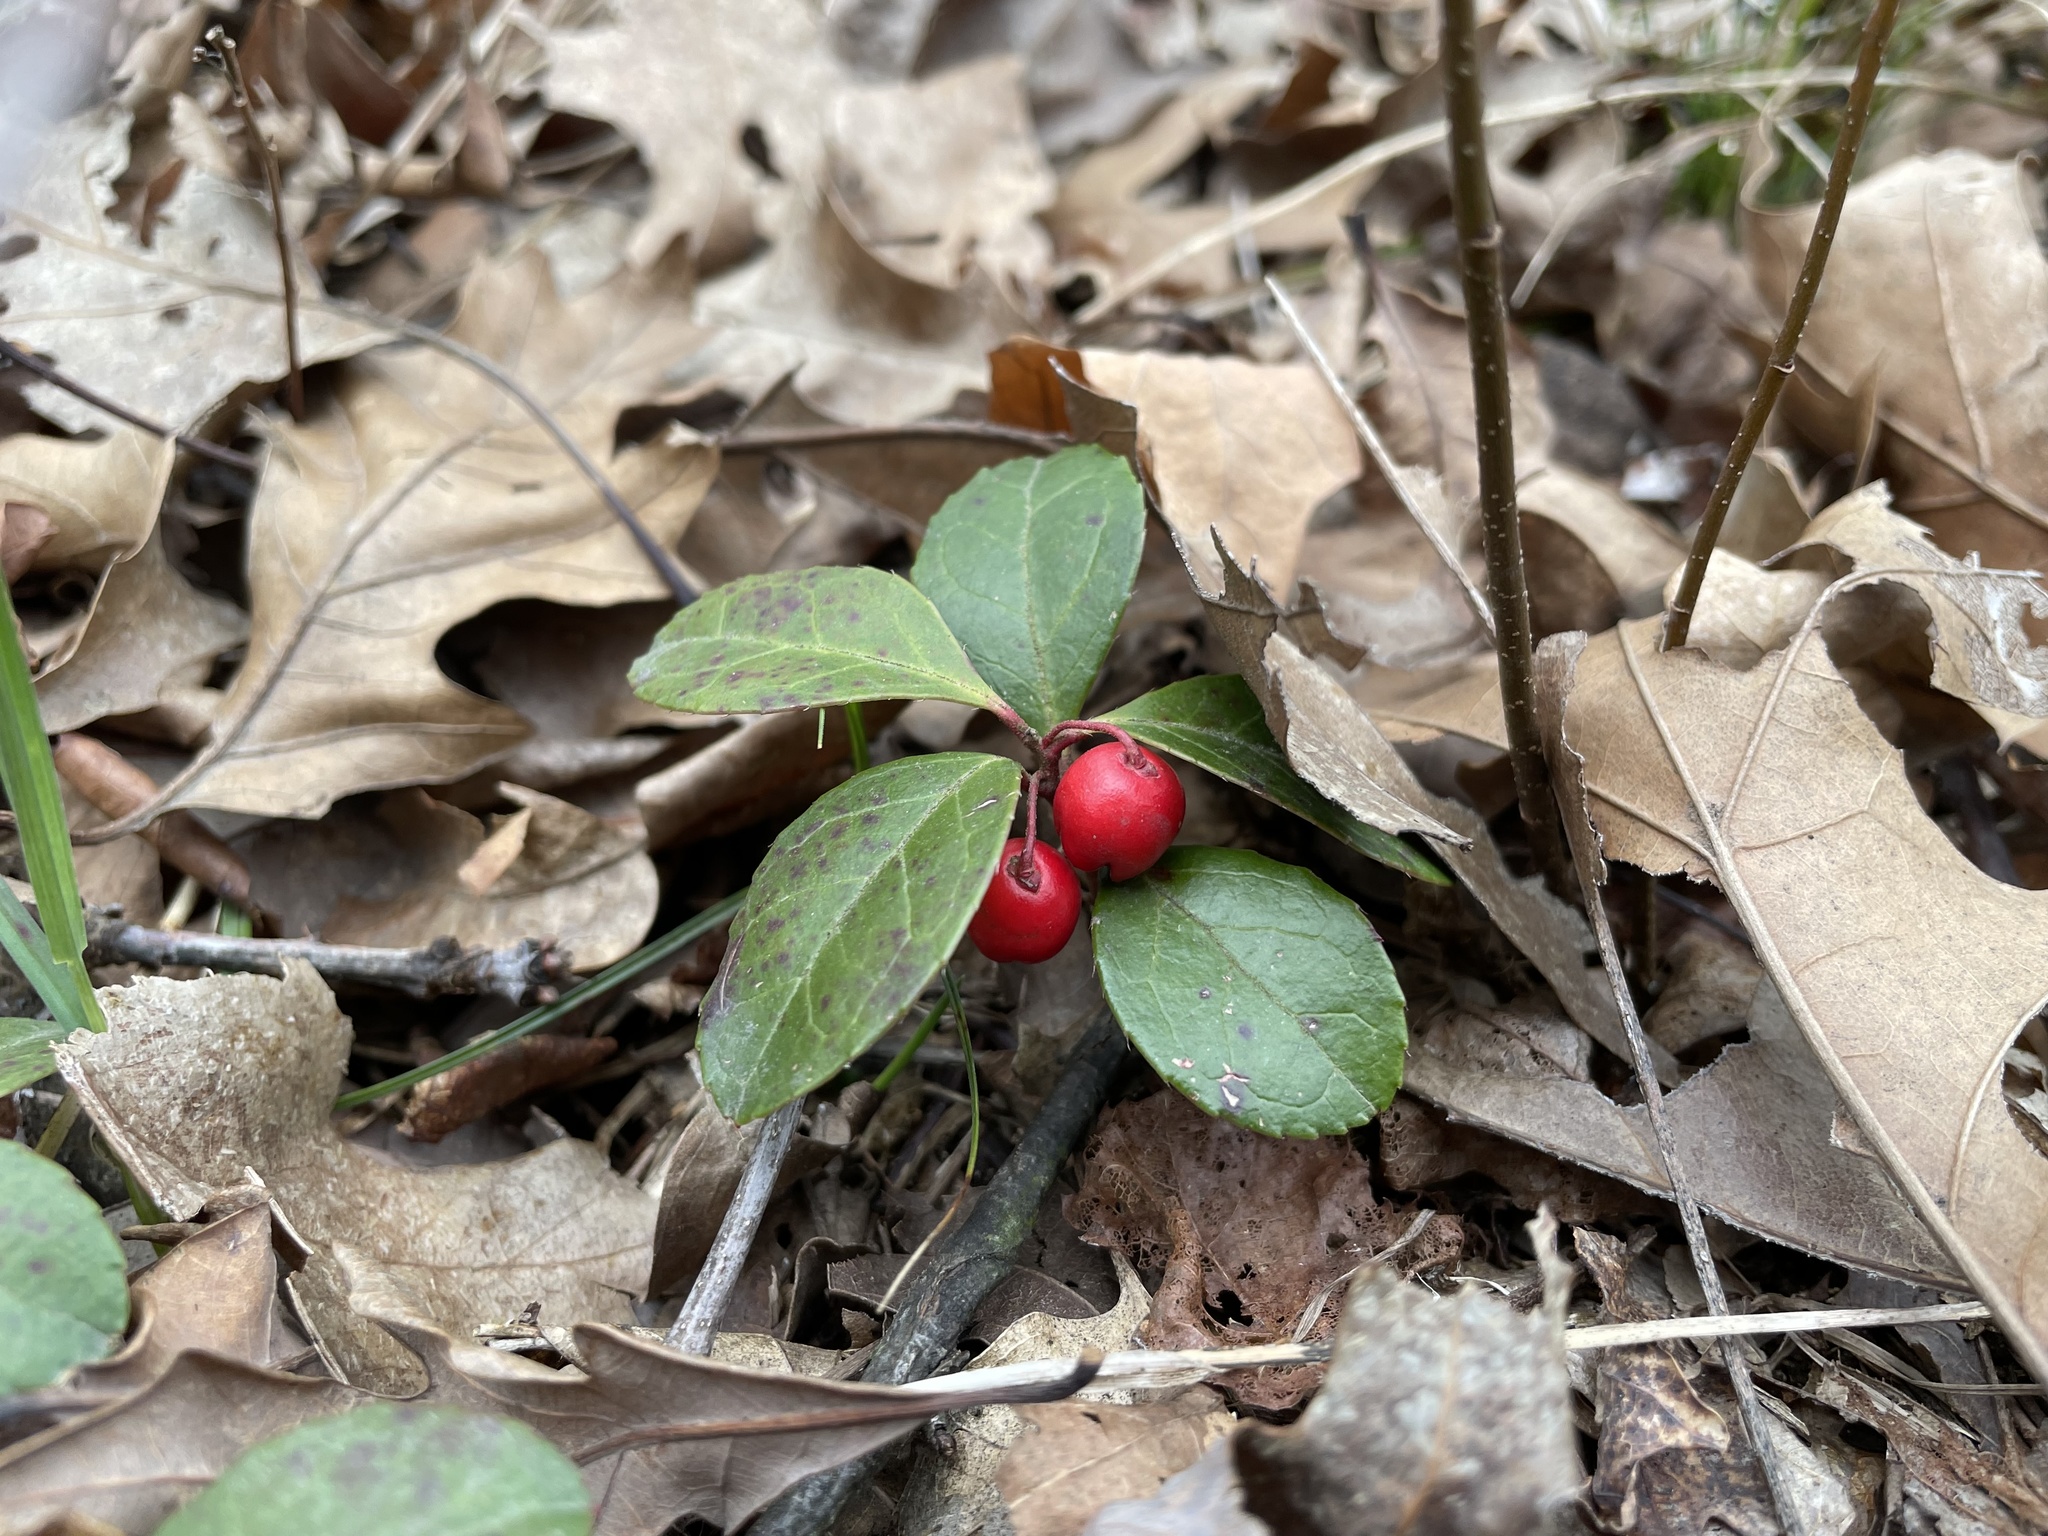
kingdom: Plantae
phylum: Tracheophyta
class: Magnoliopsida
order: Ericales
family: Ericaceae
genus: Gaultheria
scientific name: Gaultheria procumbens
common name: Checkerberry
